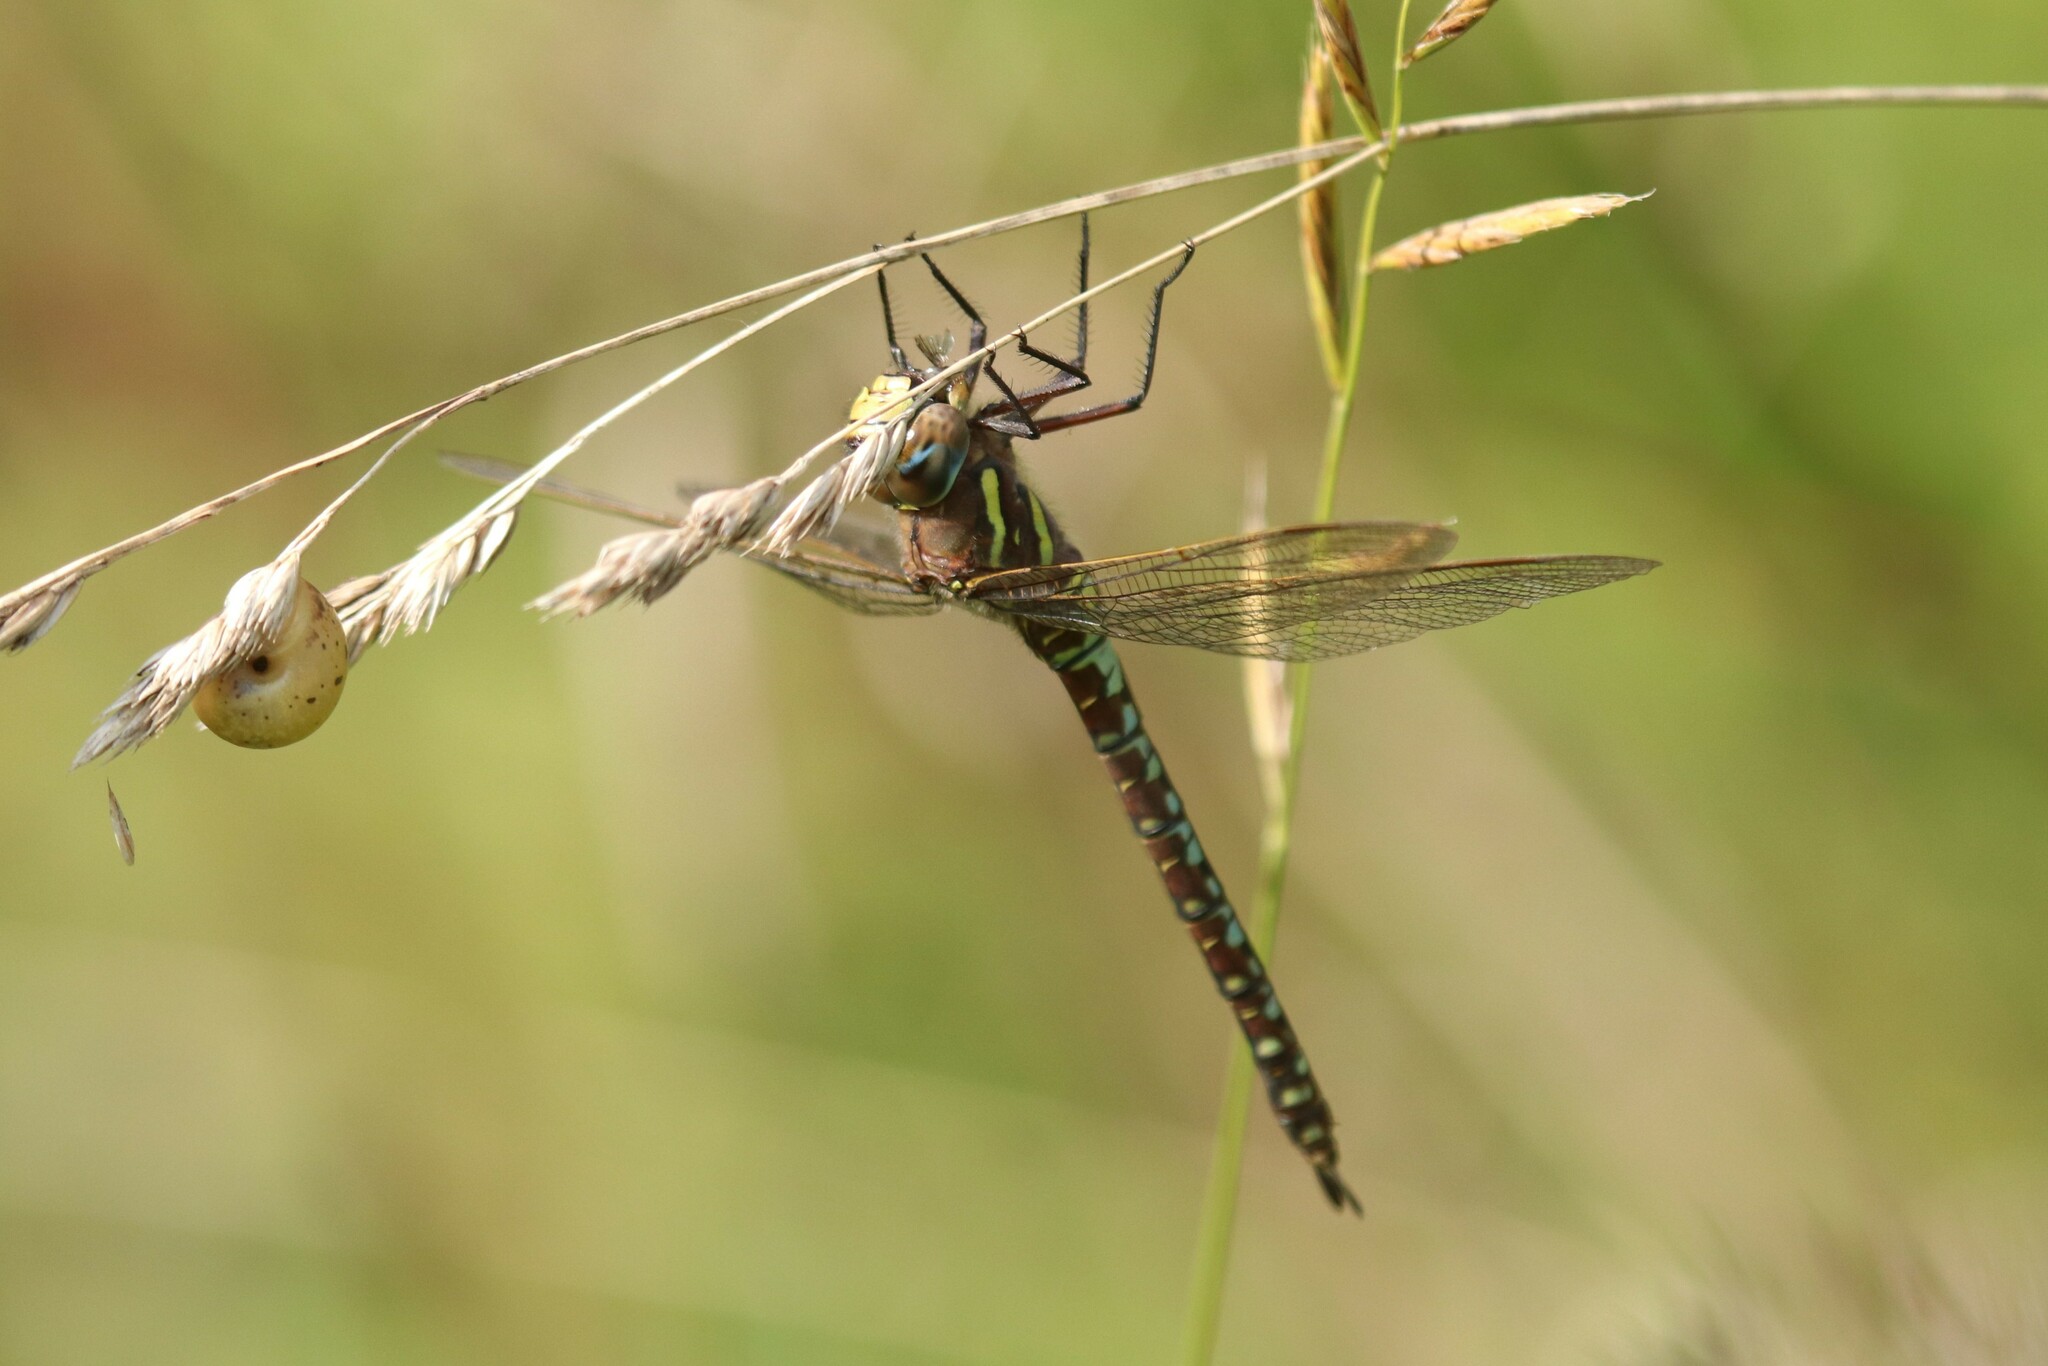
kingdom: Animalia
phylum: Arthropoda
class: Insecta
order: Odonata
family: Aeshnidae
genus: Aeshna
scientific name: Aeshna juncea
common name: Moorland hawker
